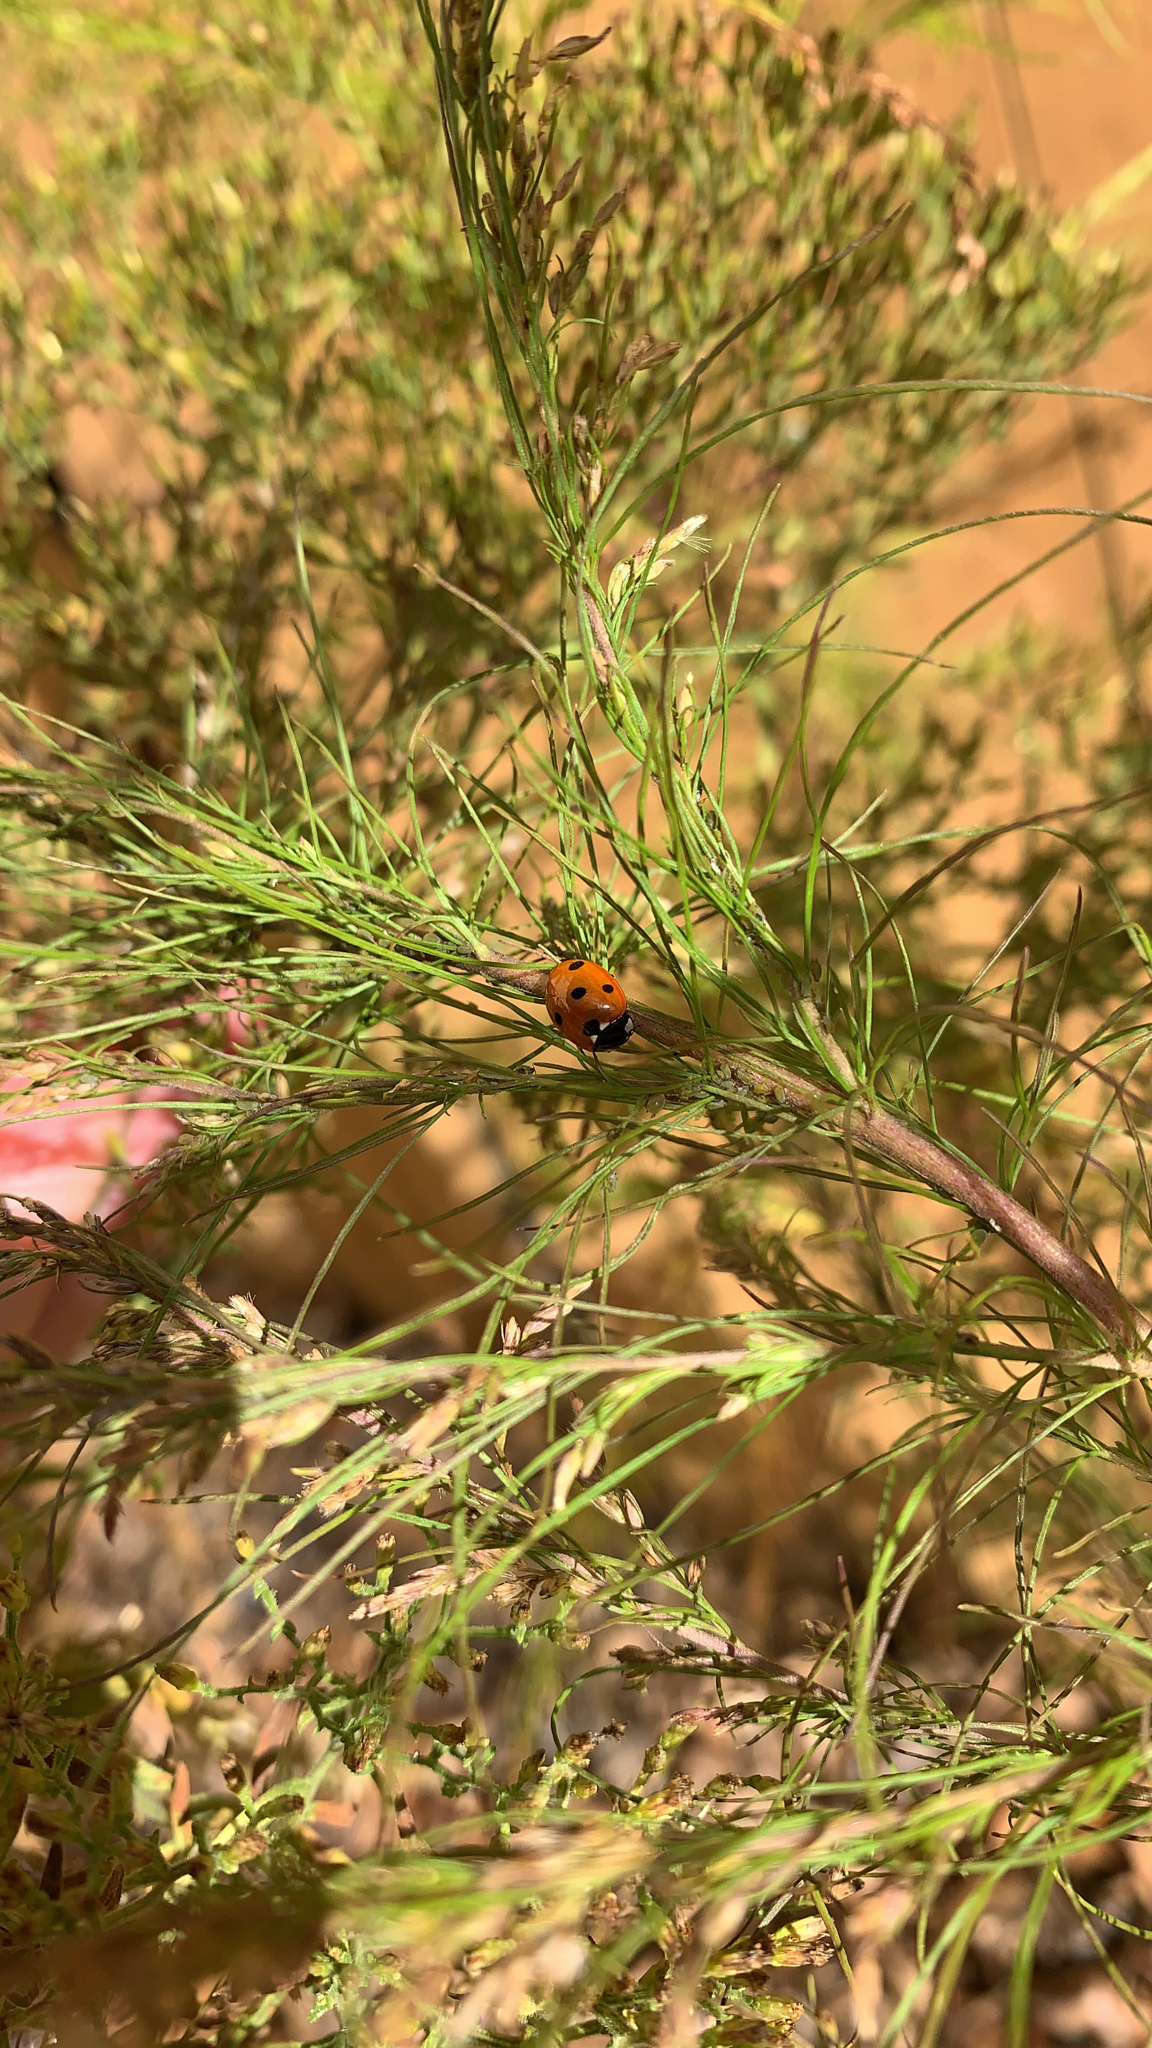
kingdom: Animalia
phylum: Arthropoda
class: Insecta
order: Coleoptera
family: Coccinellidae
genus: Coccinella
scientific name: Coccinella septempunctata
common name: Sevenspotted lady beetle
